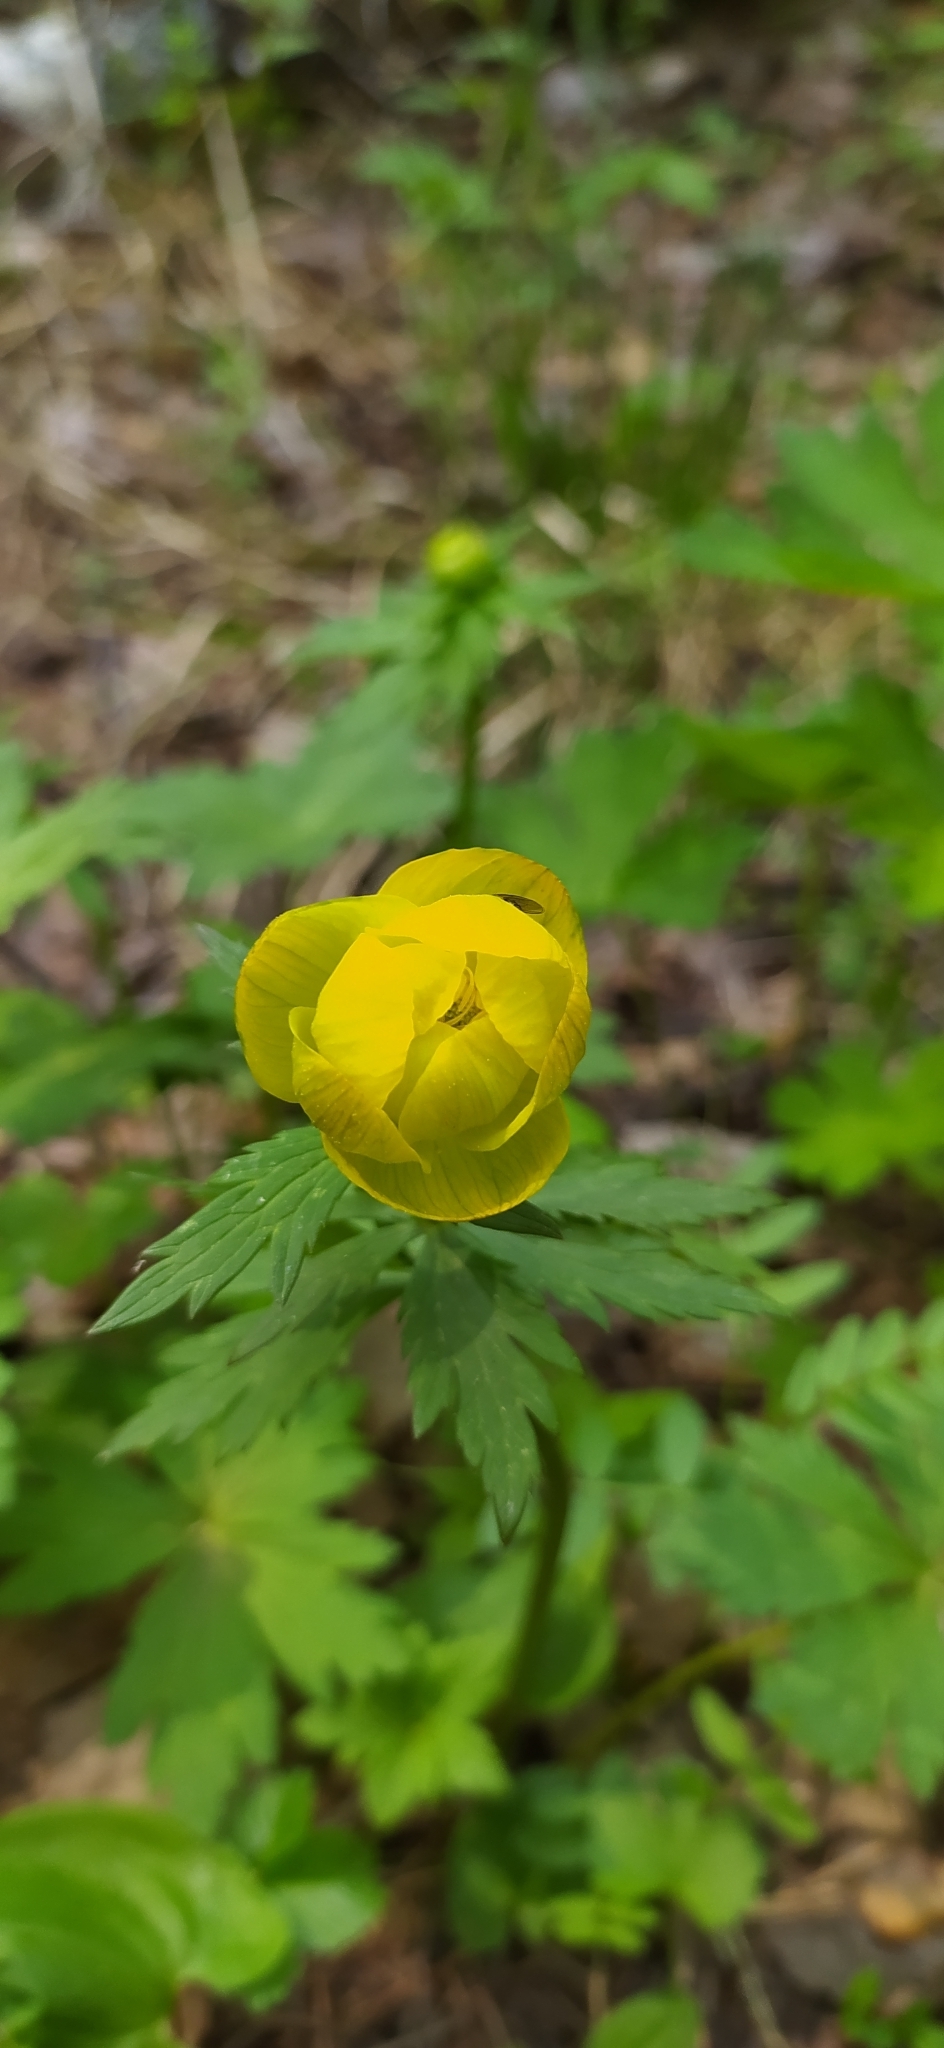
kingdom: Plantae
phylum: Tracheophyta
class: Magnoliopsida
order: Ranunculales
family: Ranunculaceae
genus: Trollius
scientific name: Trollius europaeus
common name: European globeflower
